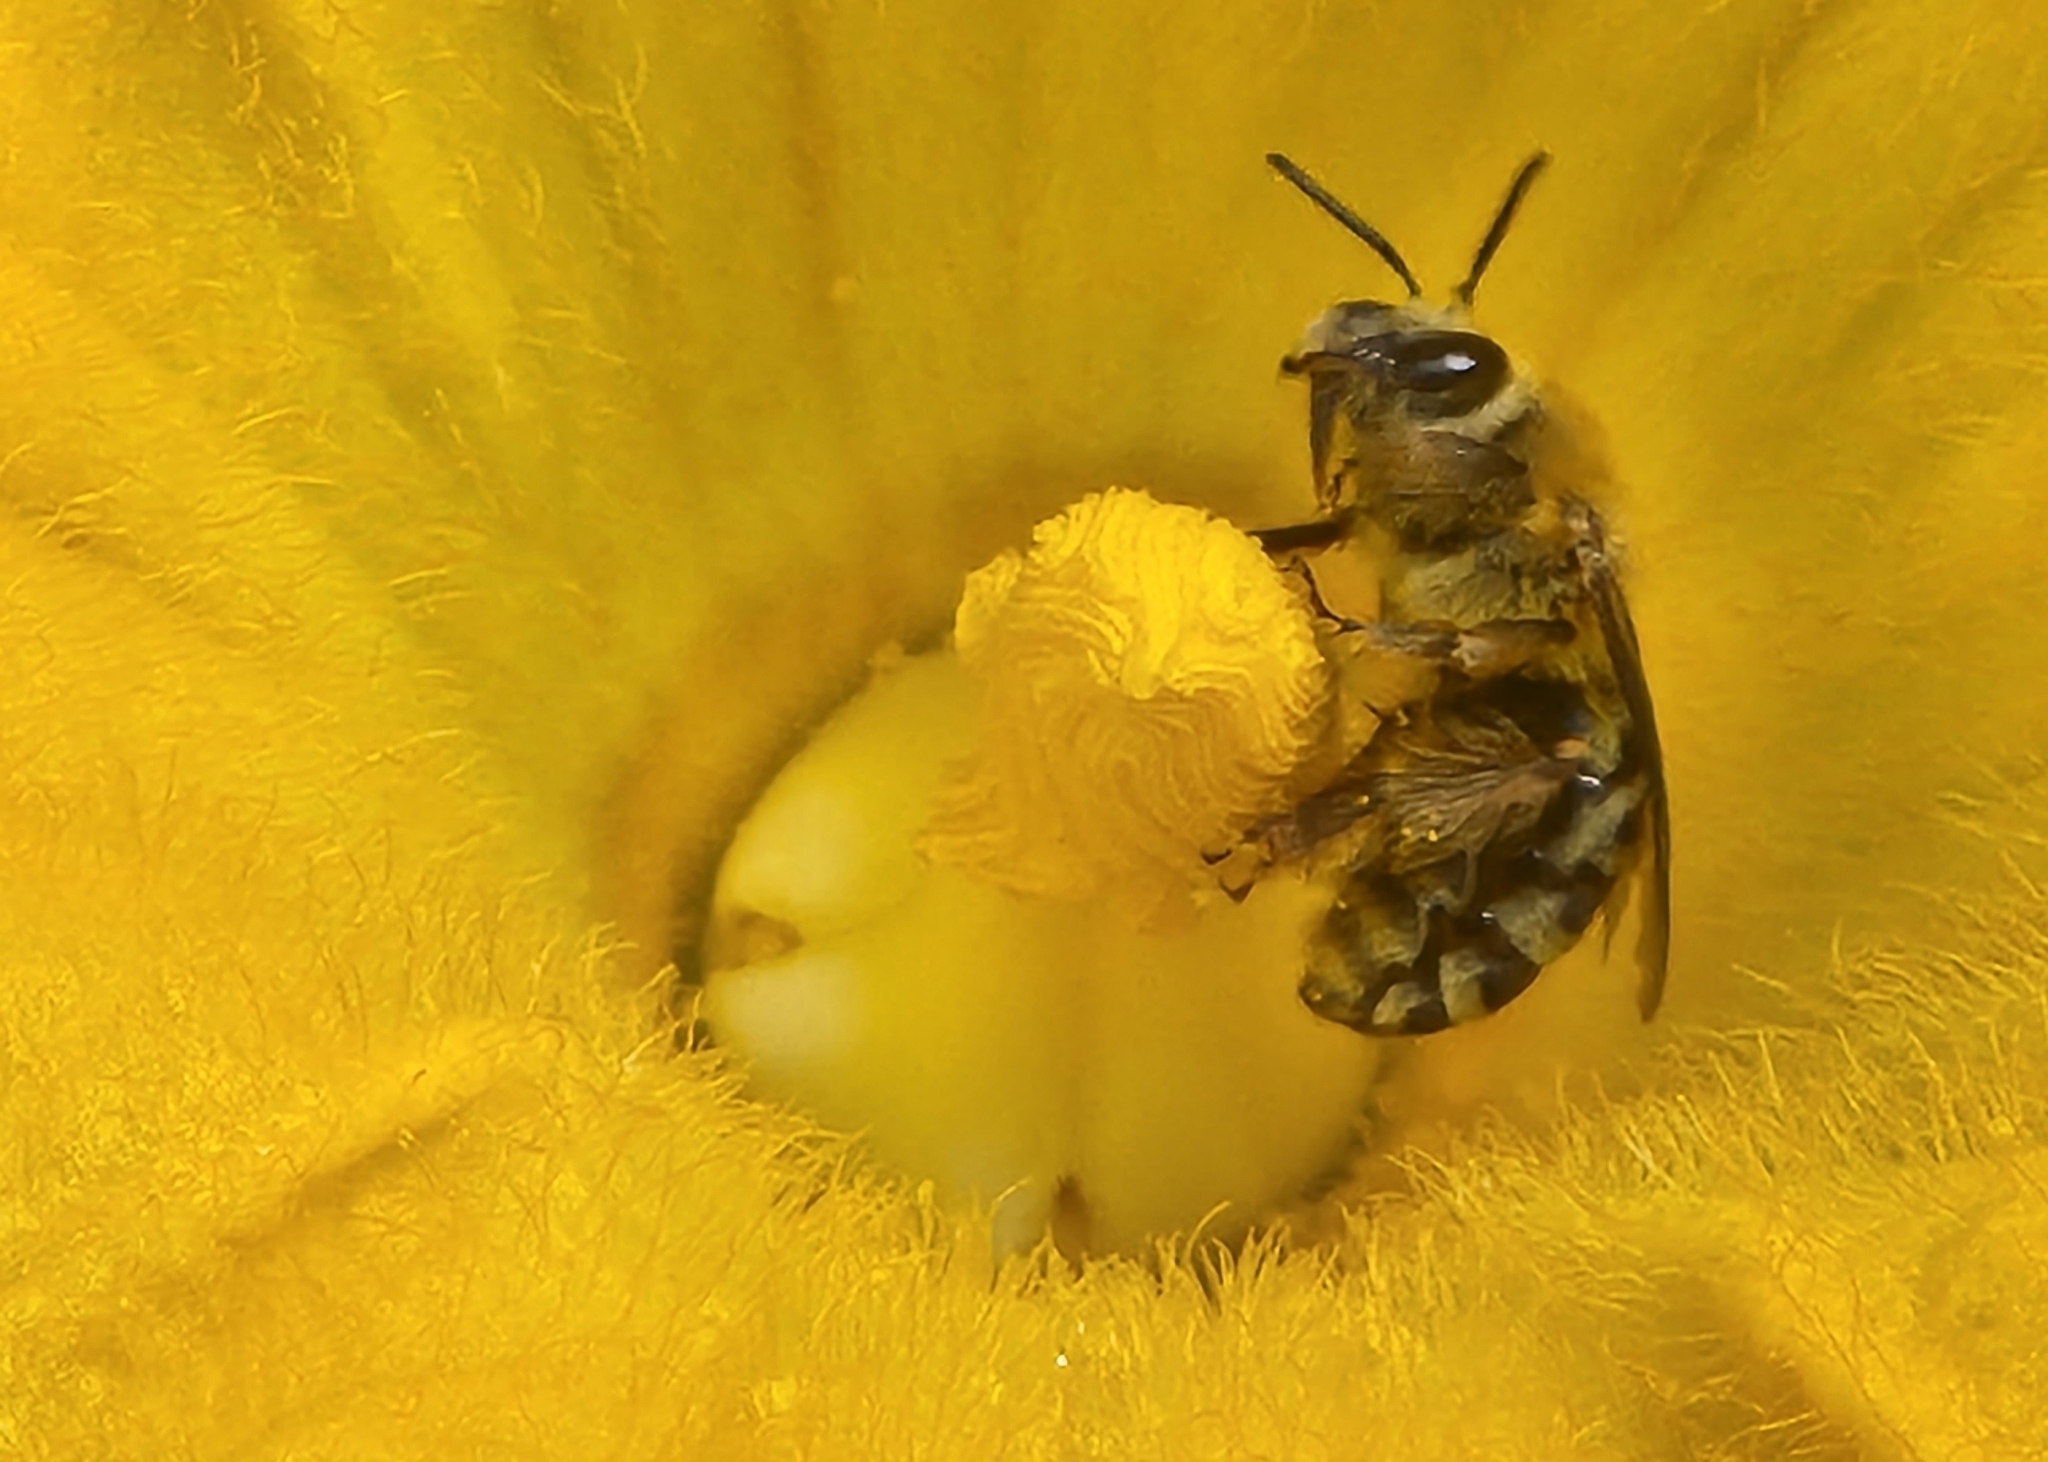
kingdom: Animalia
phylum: Arthropoda
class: Insecta
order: Hymenoptera
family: Apidae
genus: Peponapis
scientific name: Peponapis pruinosa
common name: Pruinose squash bee
